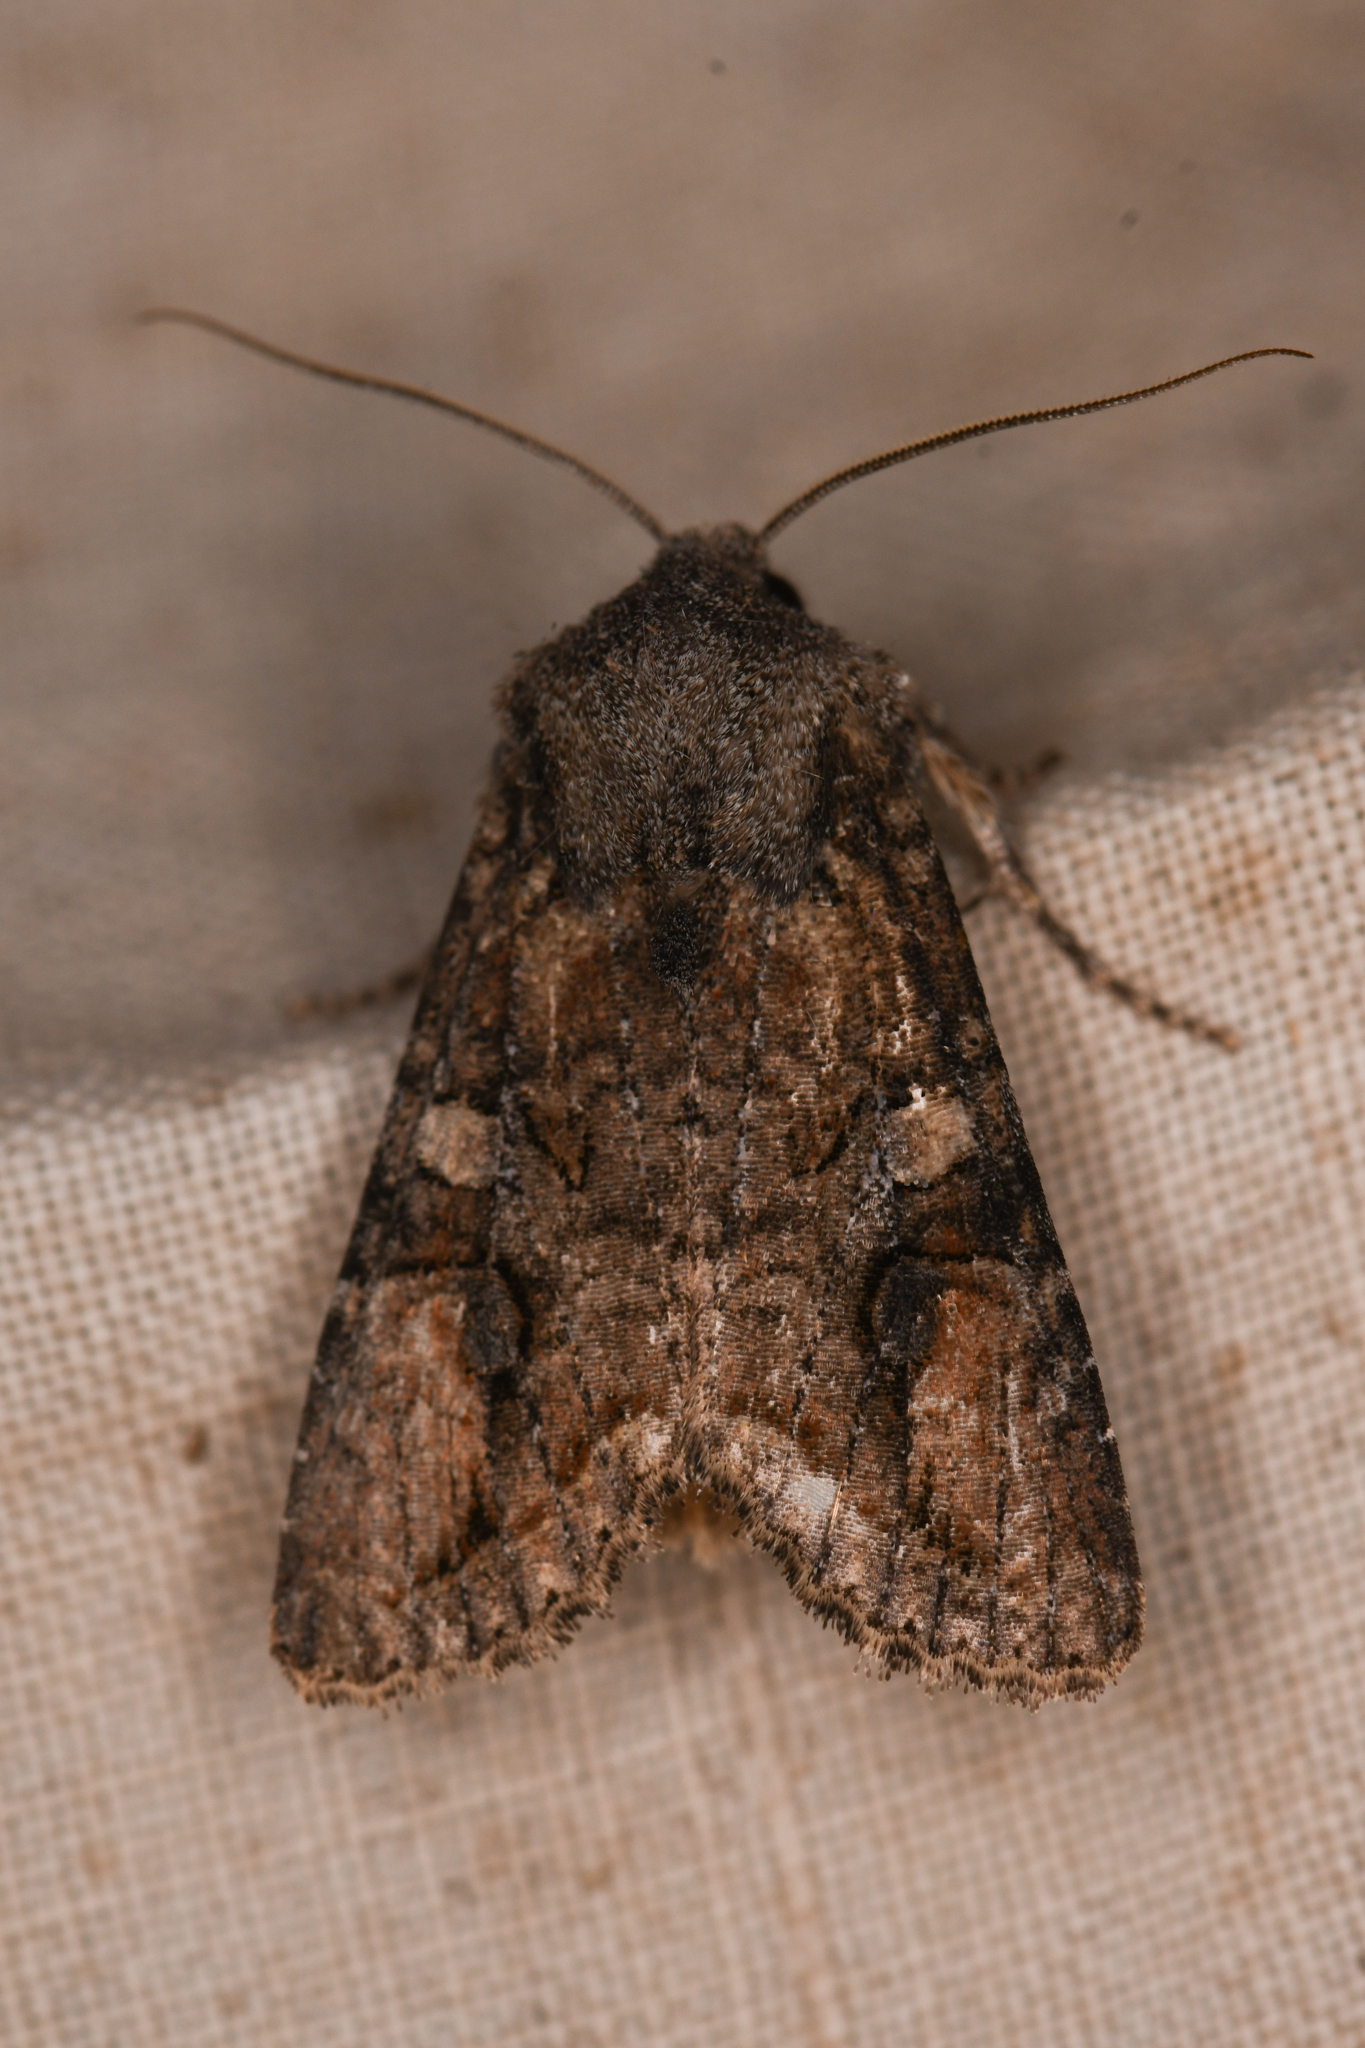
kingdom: Animalia
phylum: Arthropoda
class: Insecta
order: Lepidoptera
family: Noctuidae
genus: Egira
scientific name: Egira perlubens
